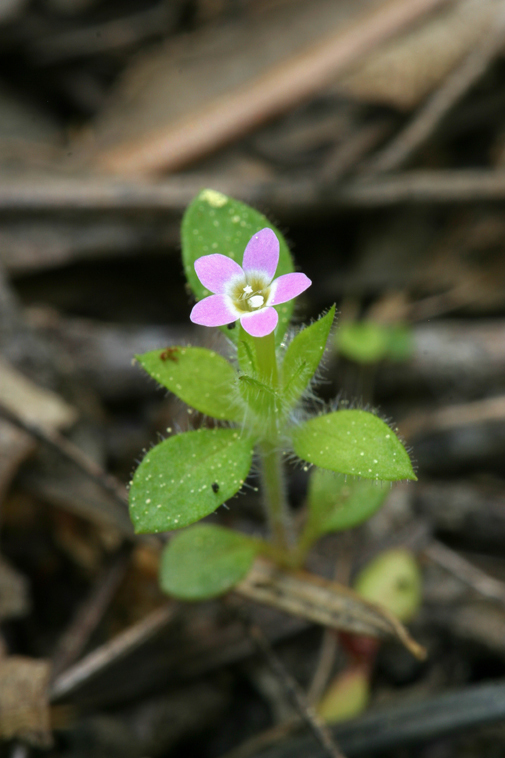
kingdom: Plantae
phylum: Tracheophyta
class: Magnoliopsida
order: Ericales
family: Polemoniaceae
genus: Collomia
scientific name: Collomia heterophylla
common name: Variable-leaved collomia
